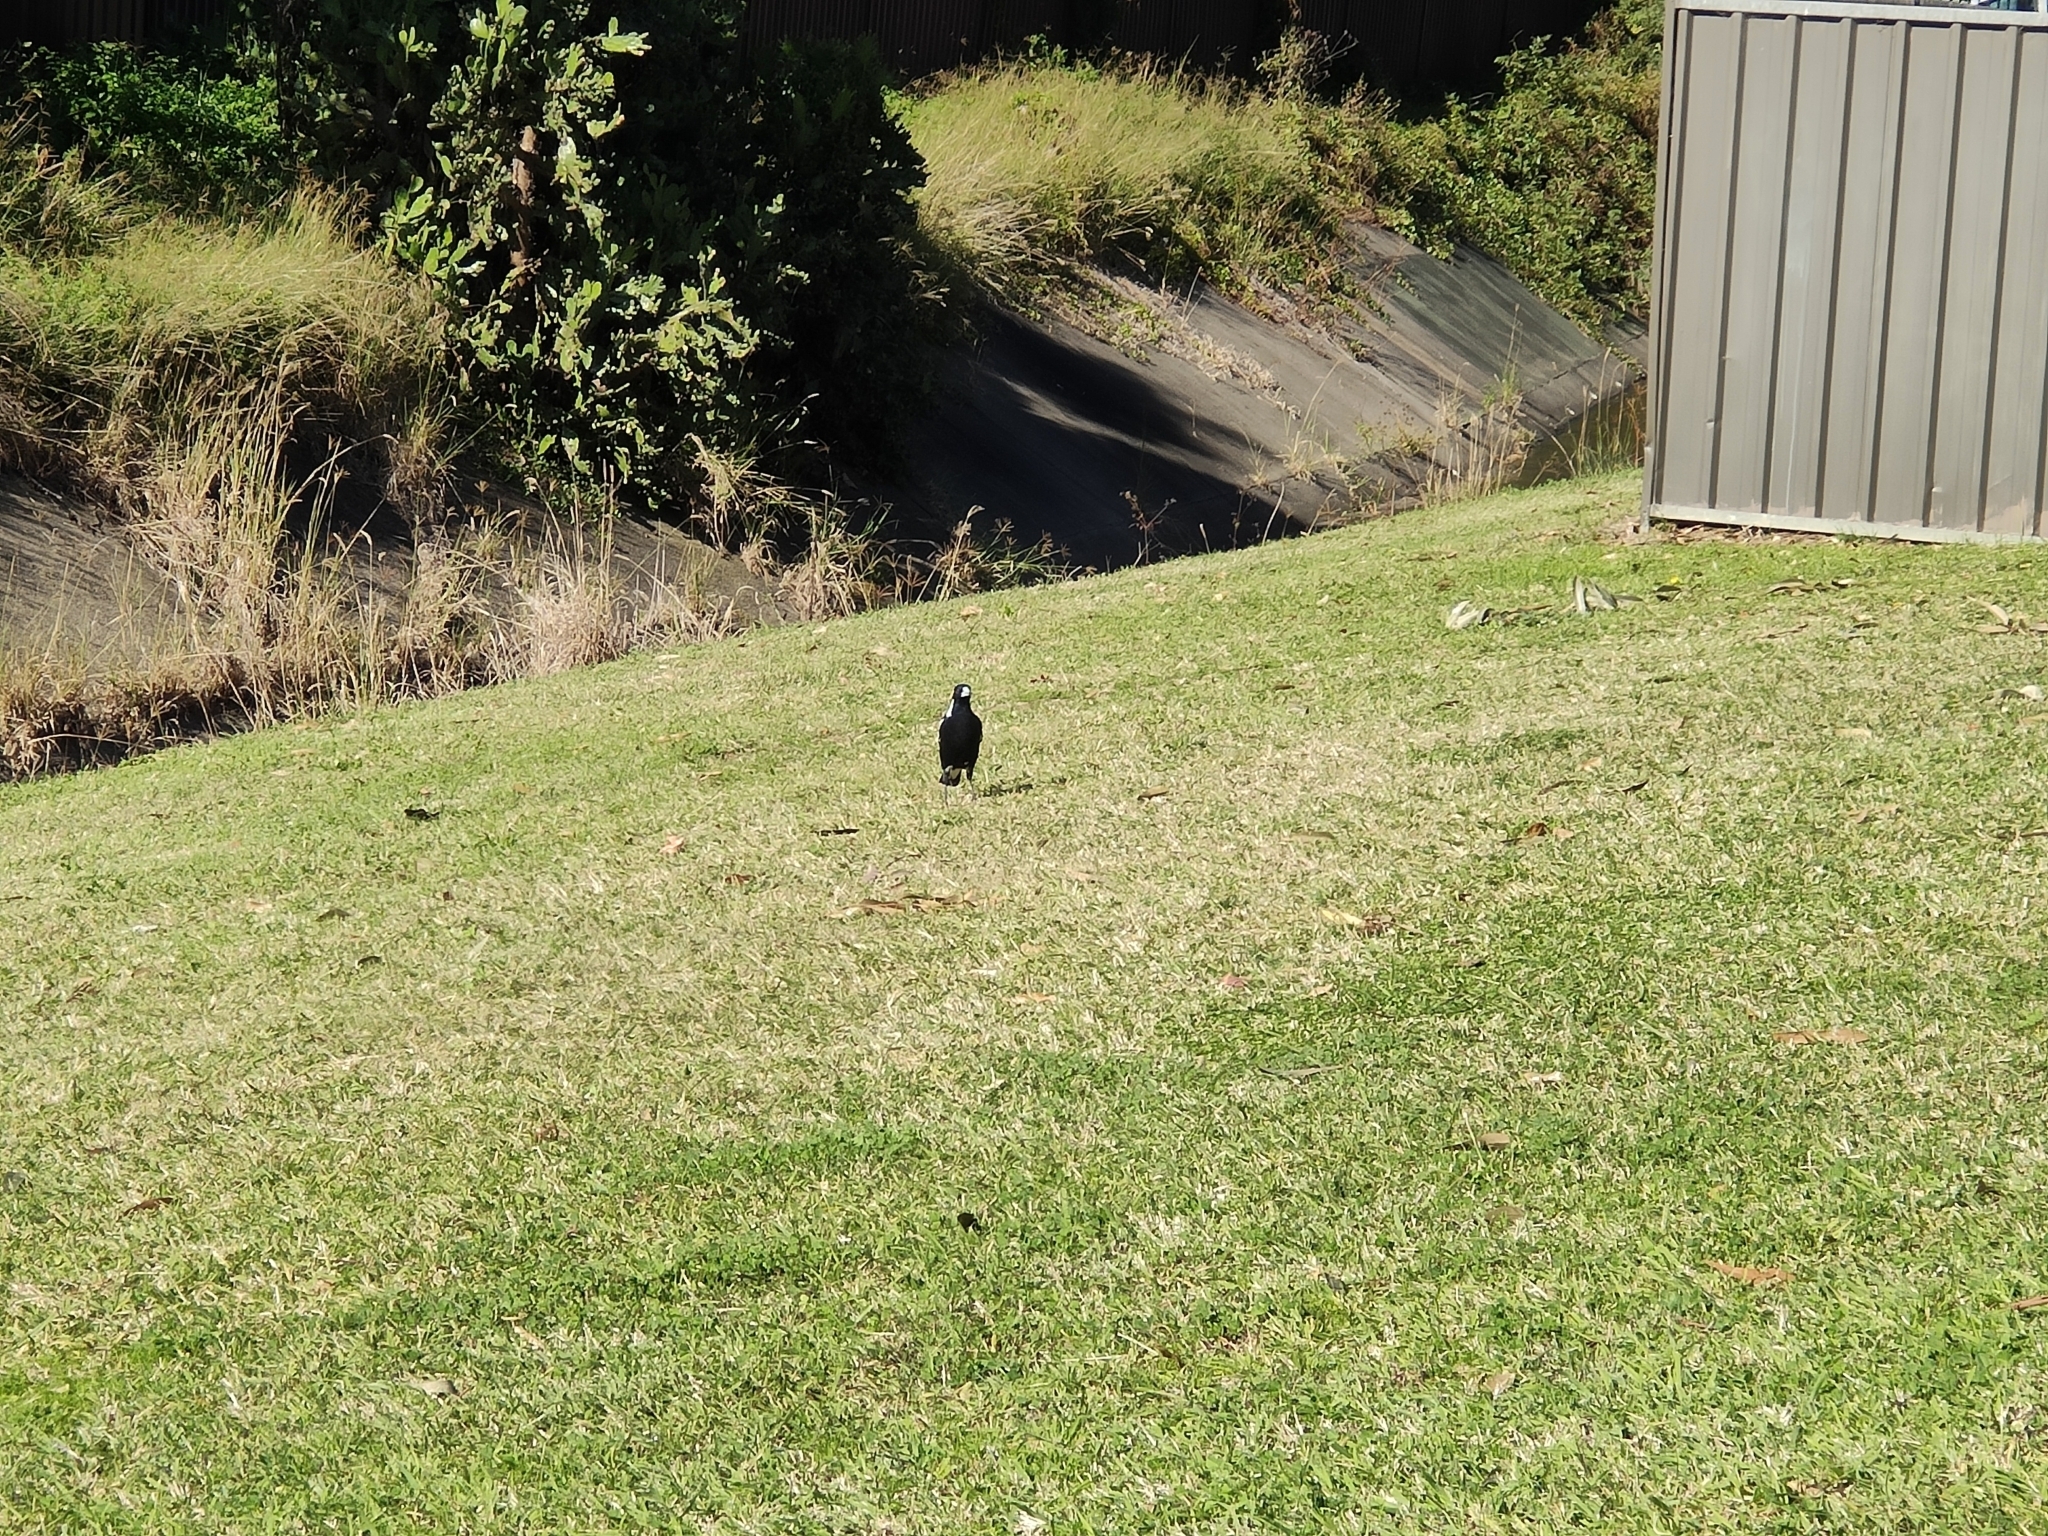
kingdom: Animalia
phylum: Chordata
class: Aves
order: Passeriformes
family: Cracticidae
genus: Gymnorhina
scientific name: Gymnorhina tibicen
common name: Australian magpie
